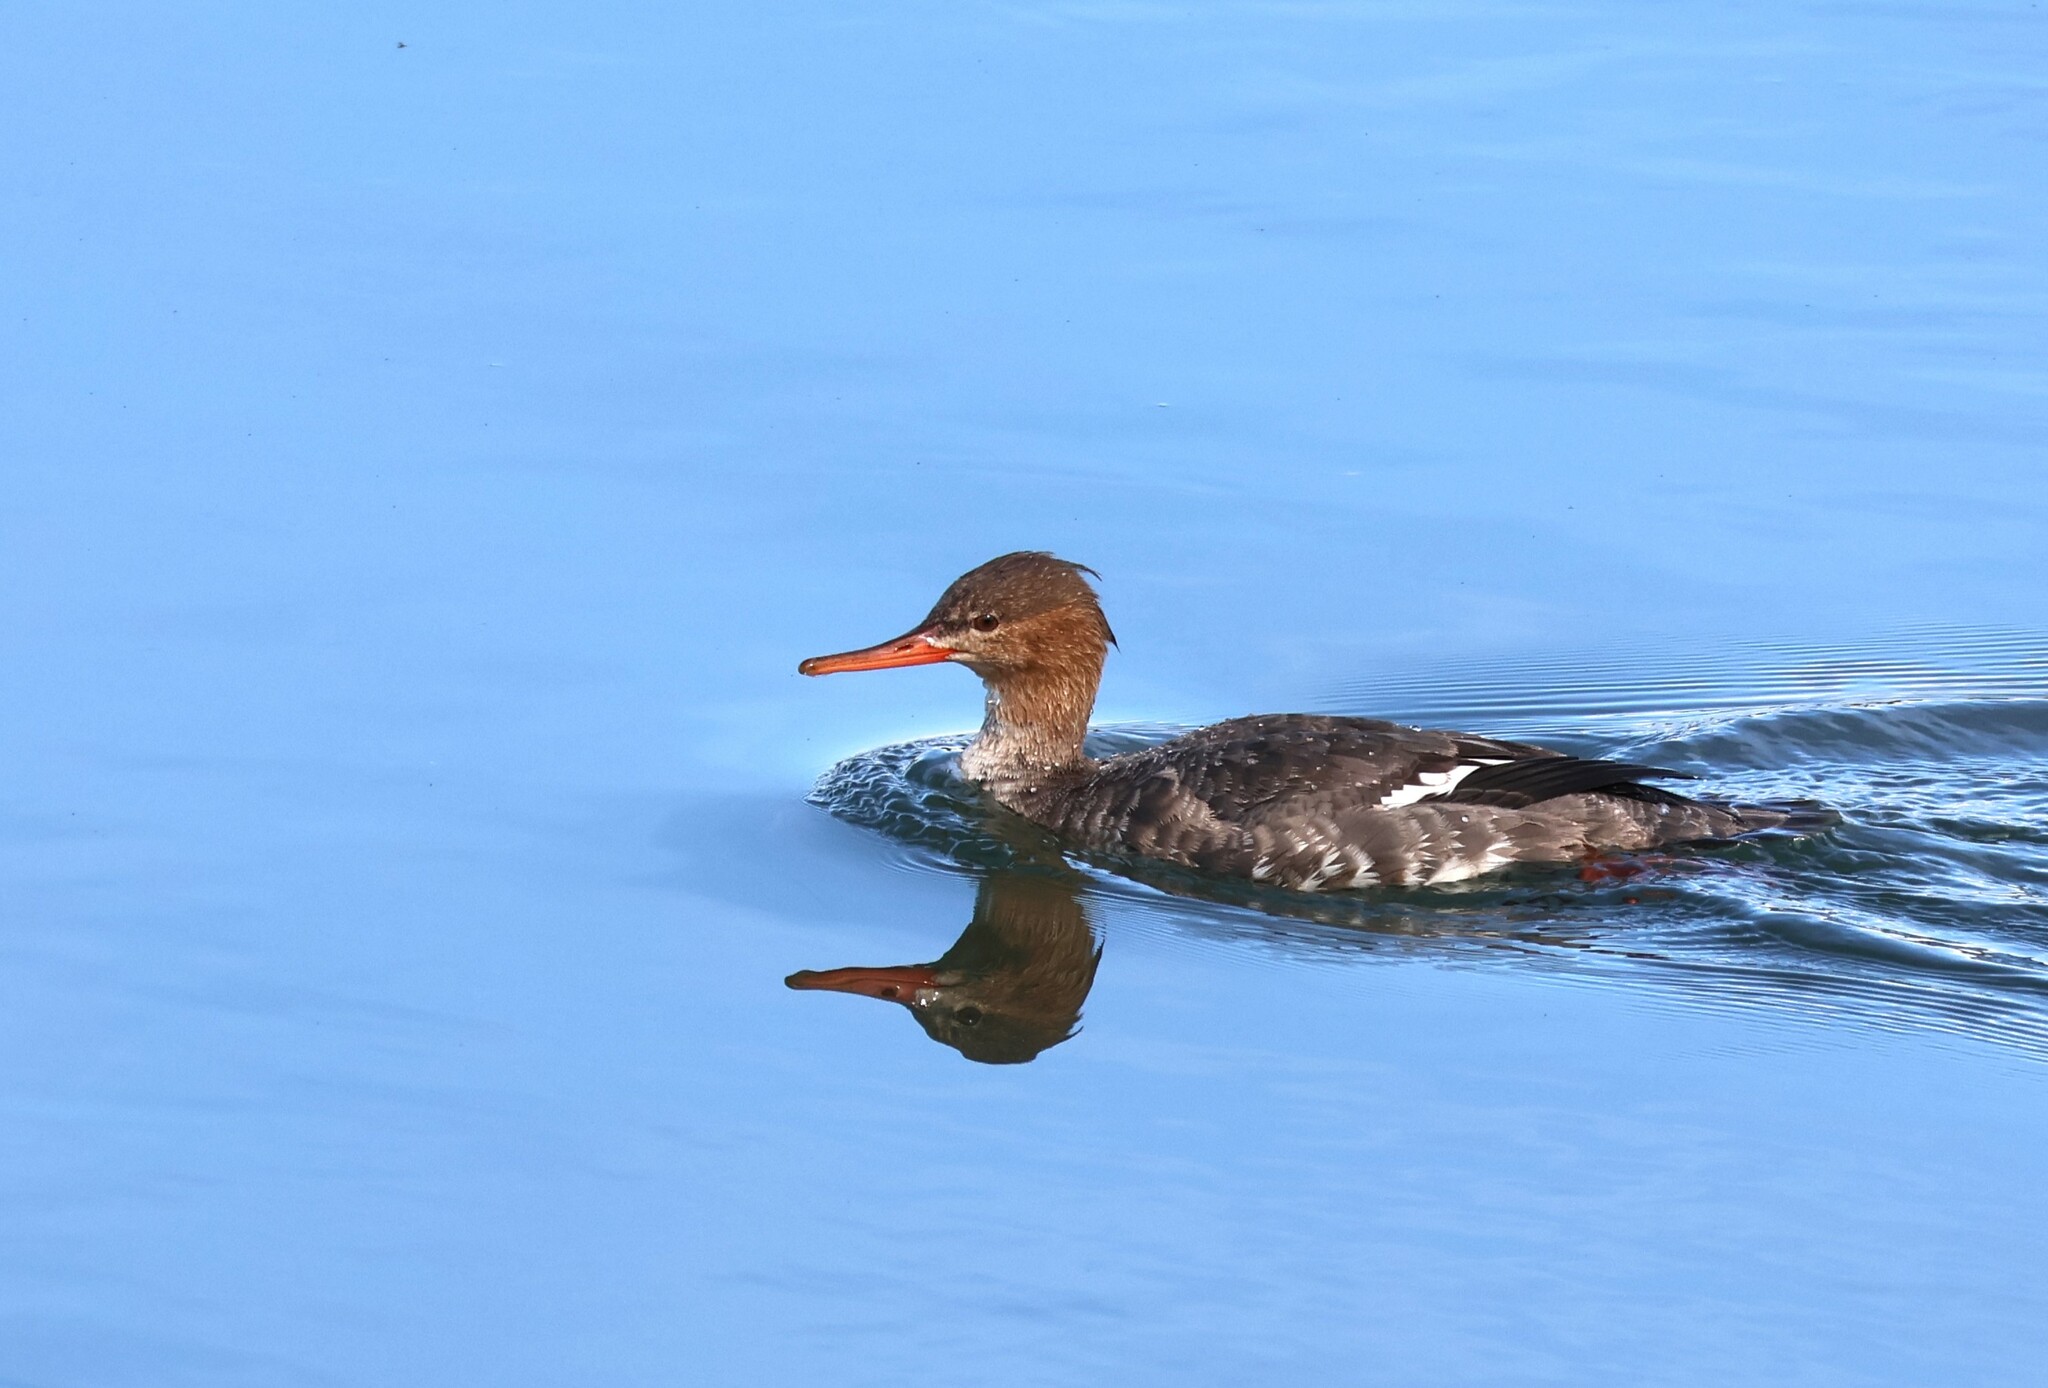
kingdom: Animalia
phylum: Chordata
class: Aves
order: Anseriformes
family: Anatidae
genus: Mergus
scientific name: Mergus serrator
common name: Red-breasted merganser
